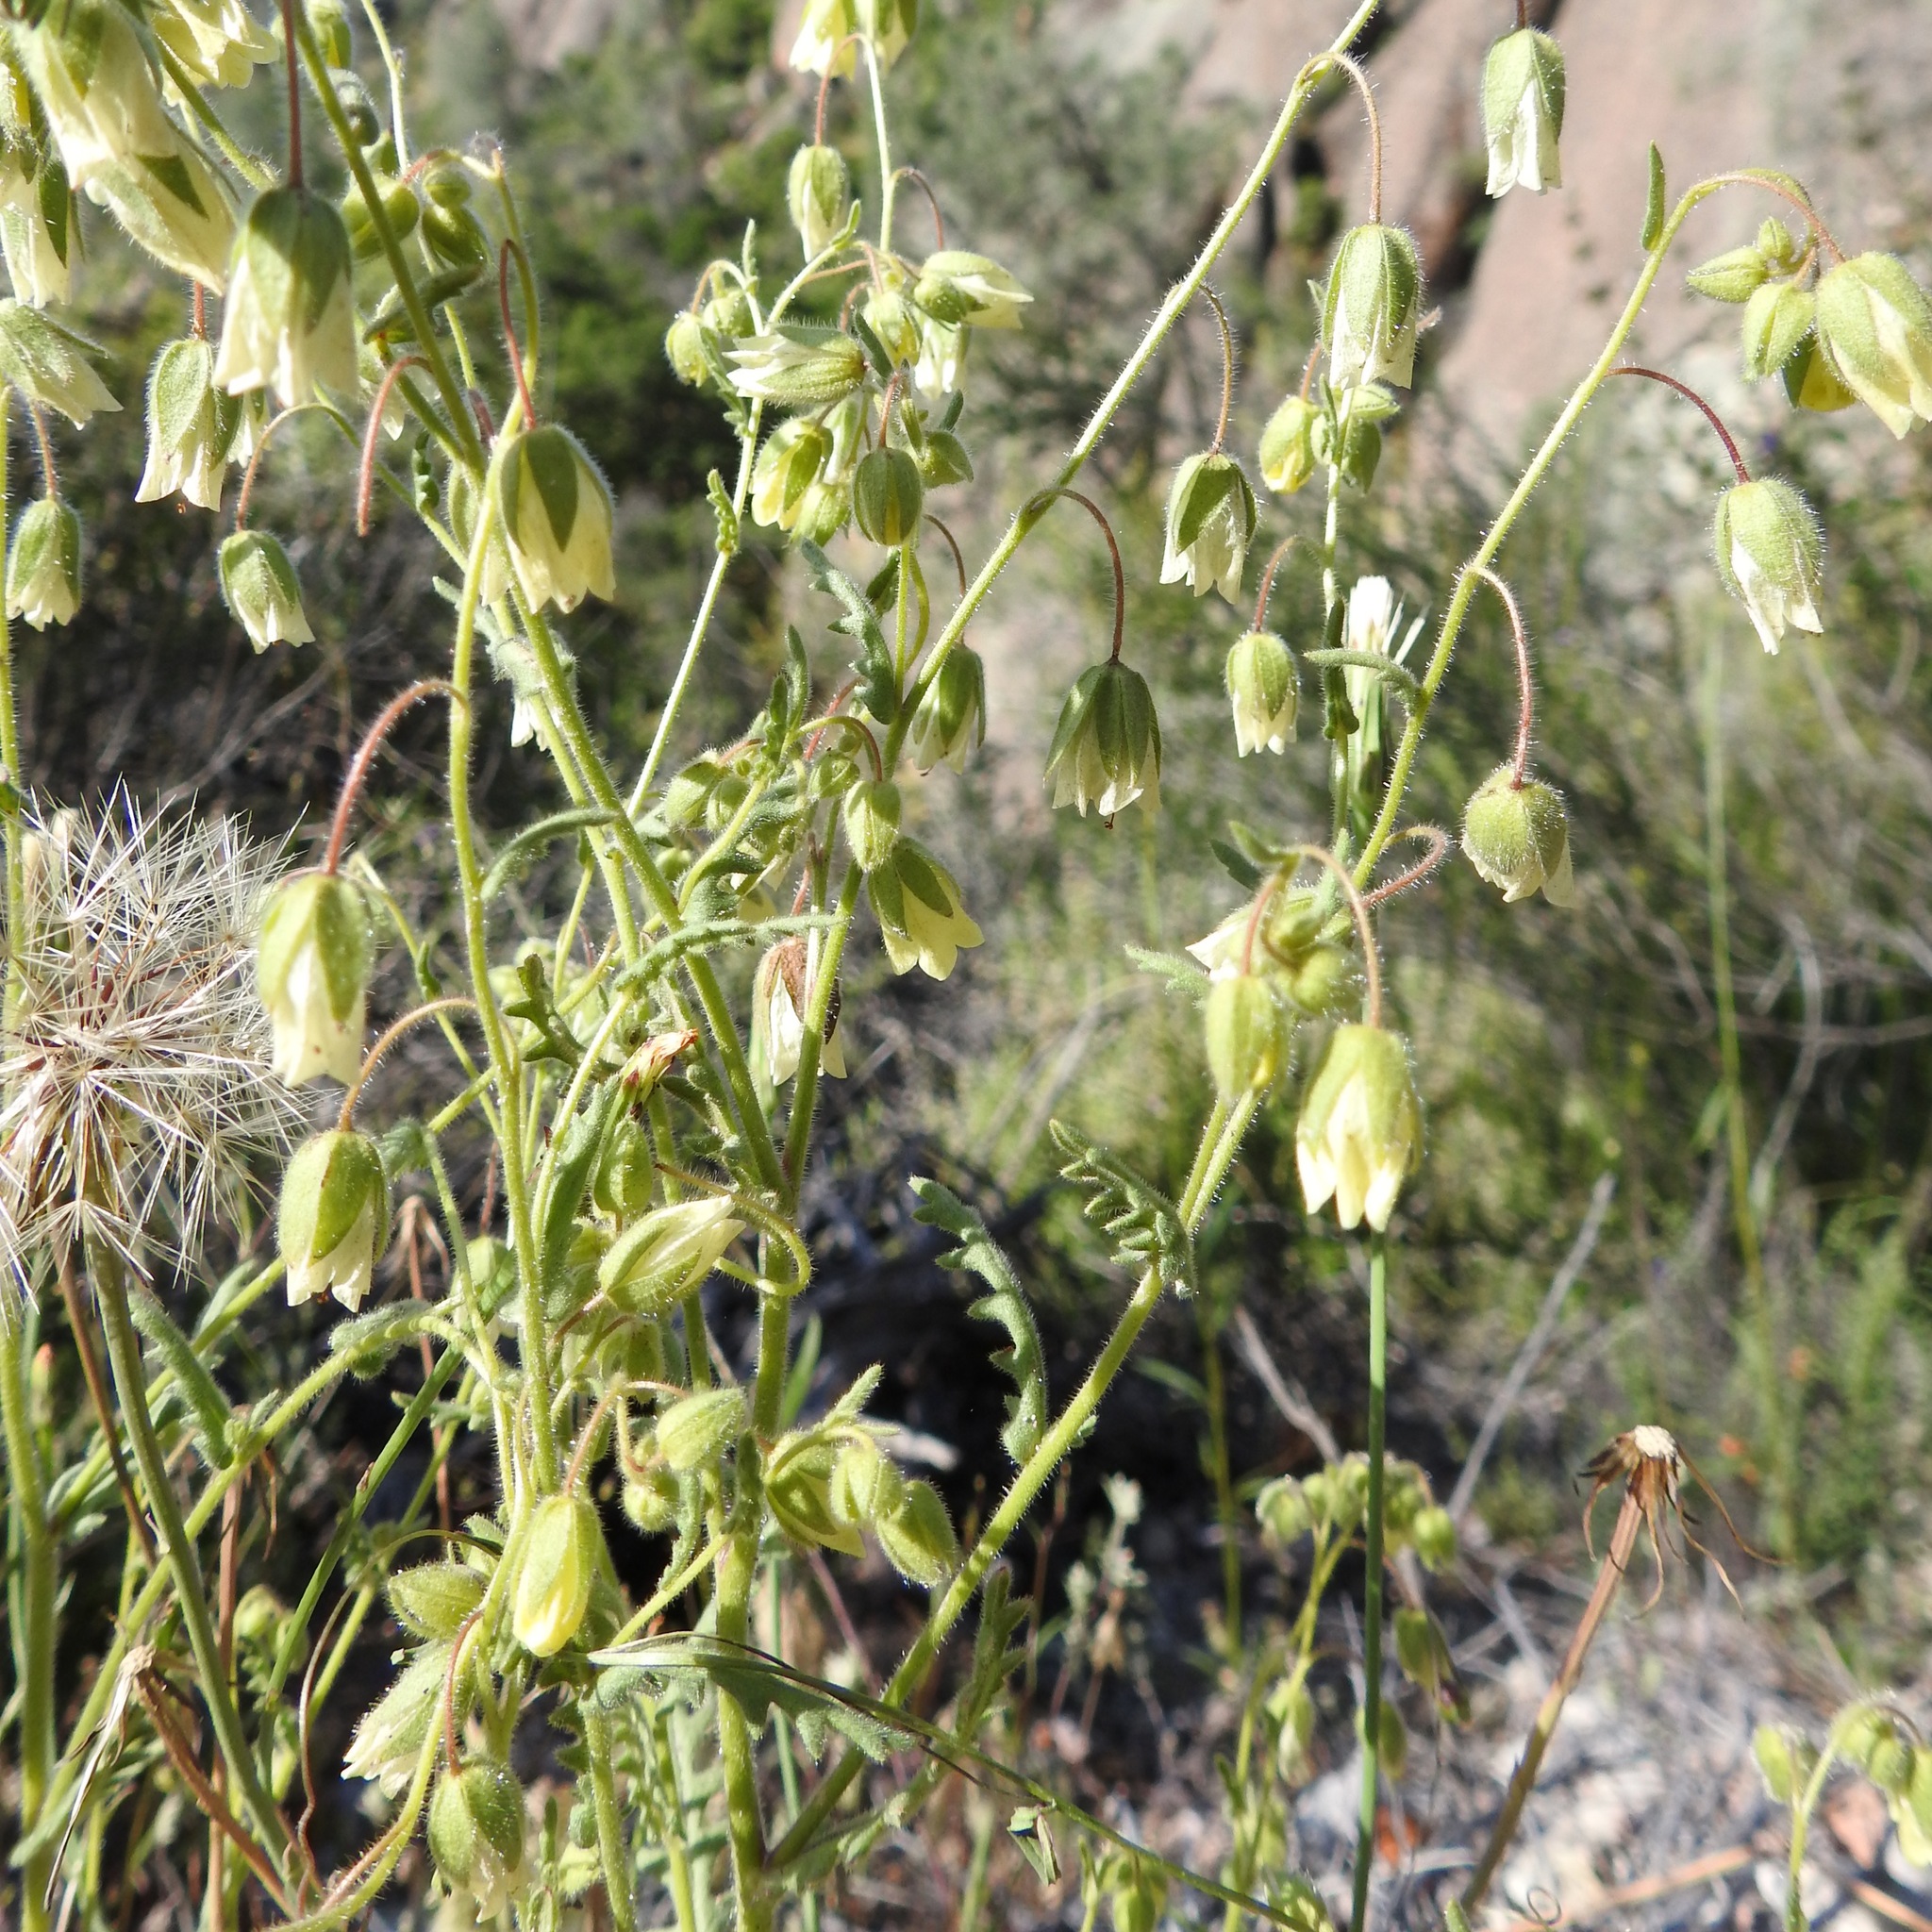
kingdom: Plantae
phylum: Tracheophyta
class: Magnoliopsida
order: Boraginales
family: Hydrophyllaceae
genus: Emmenanthe
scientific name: Emmenanthe penduliflora
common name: Whispering-bells
